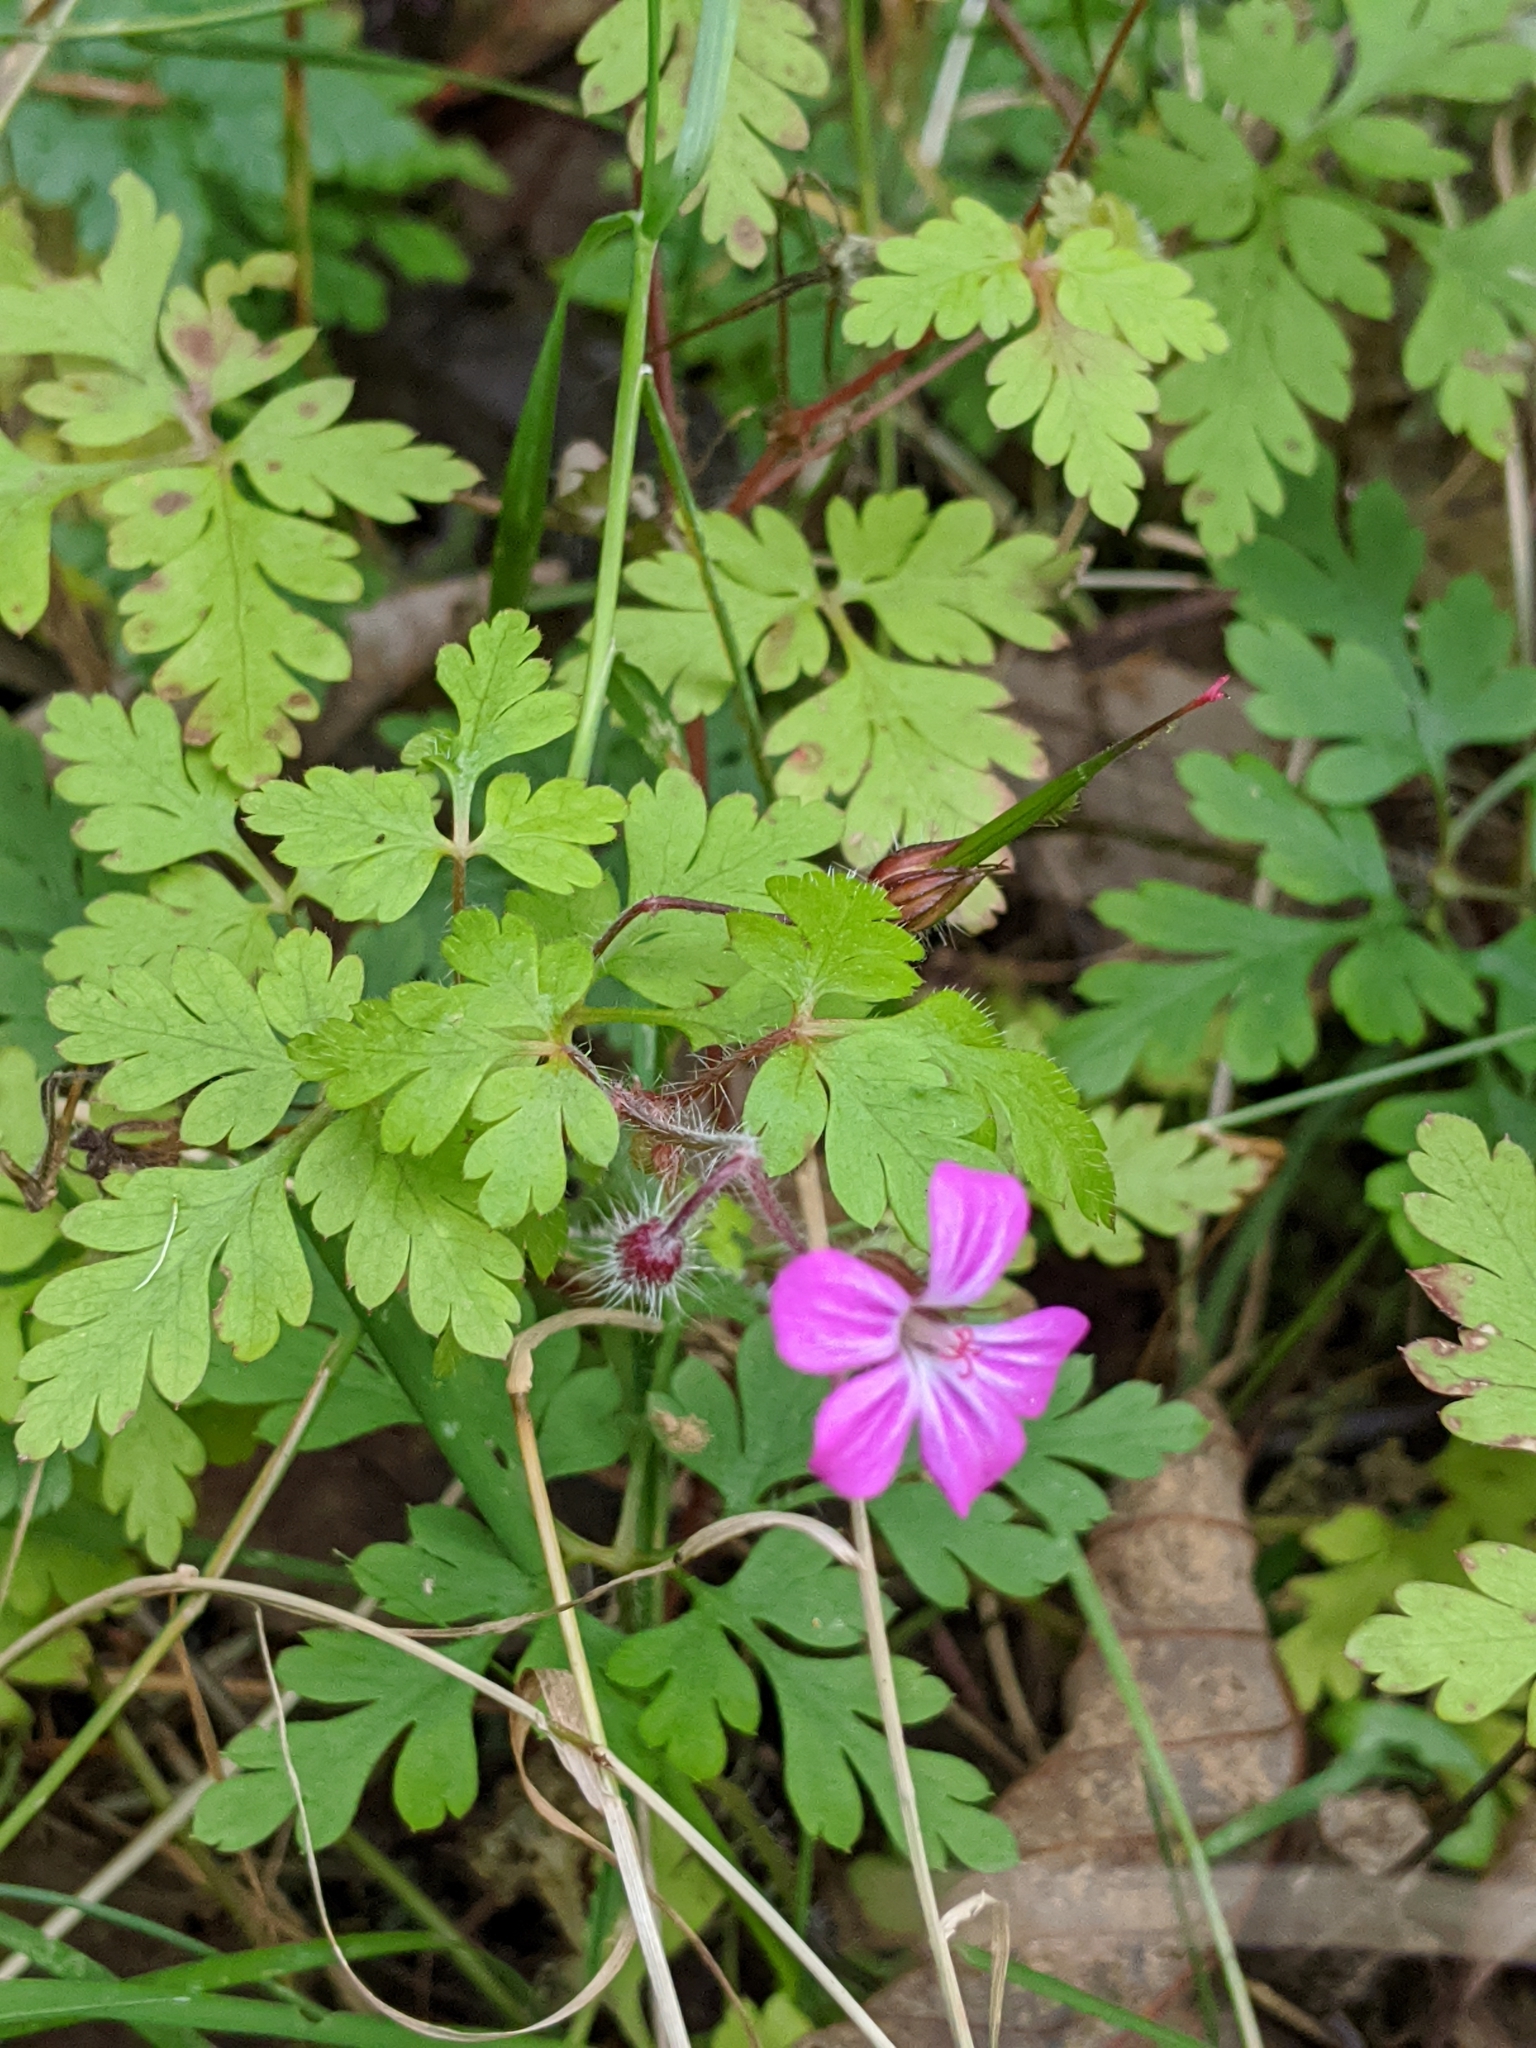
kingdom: Plantae
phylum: Tracheophyta
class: Magnoliopsida
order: Geraniales
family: Geraniaceae
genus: Geranium
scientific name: Geranium robertianum
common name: Herb-robert
